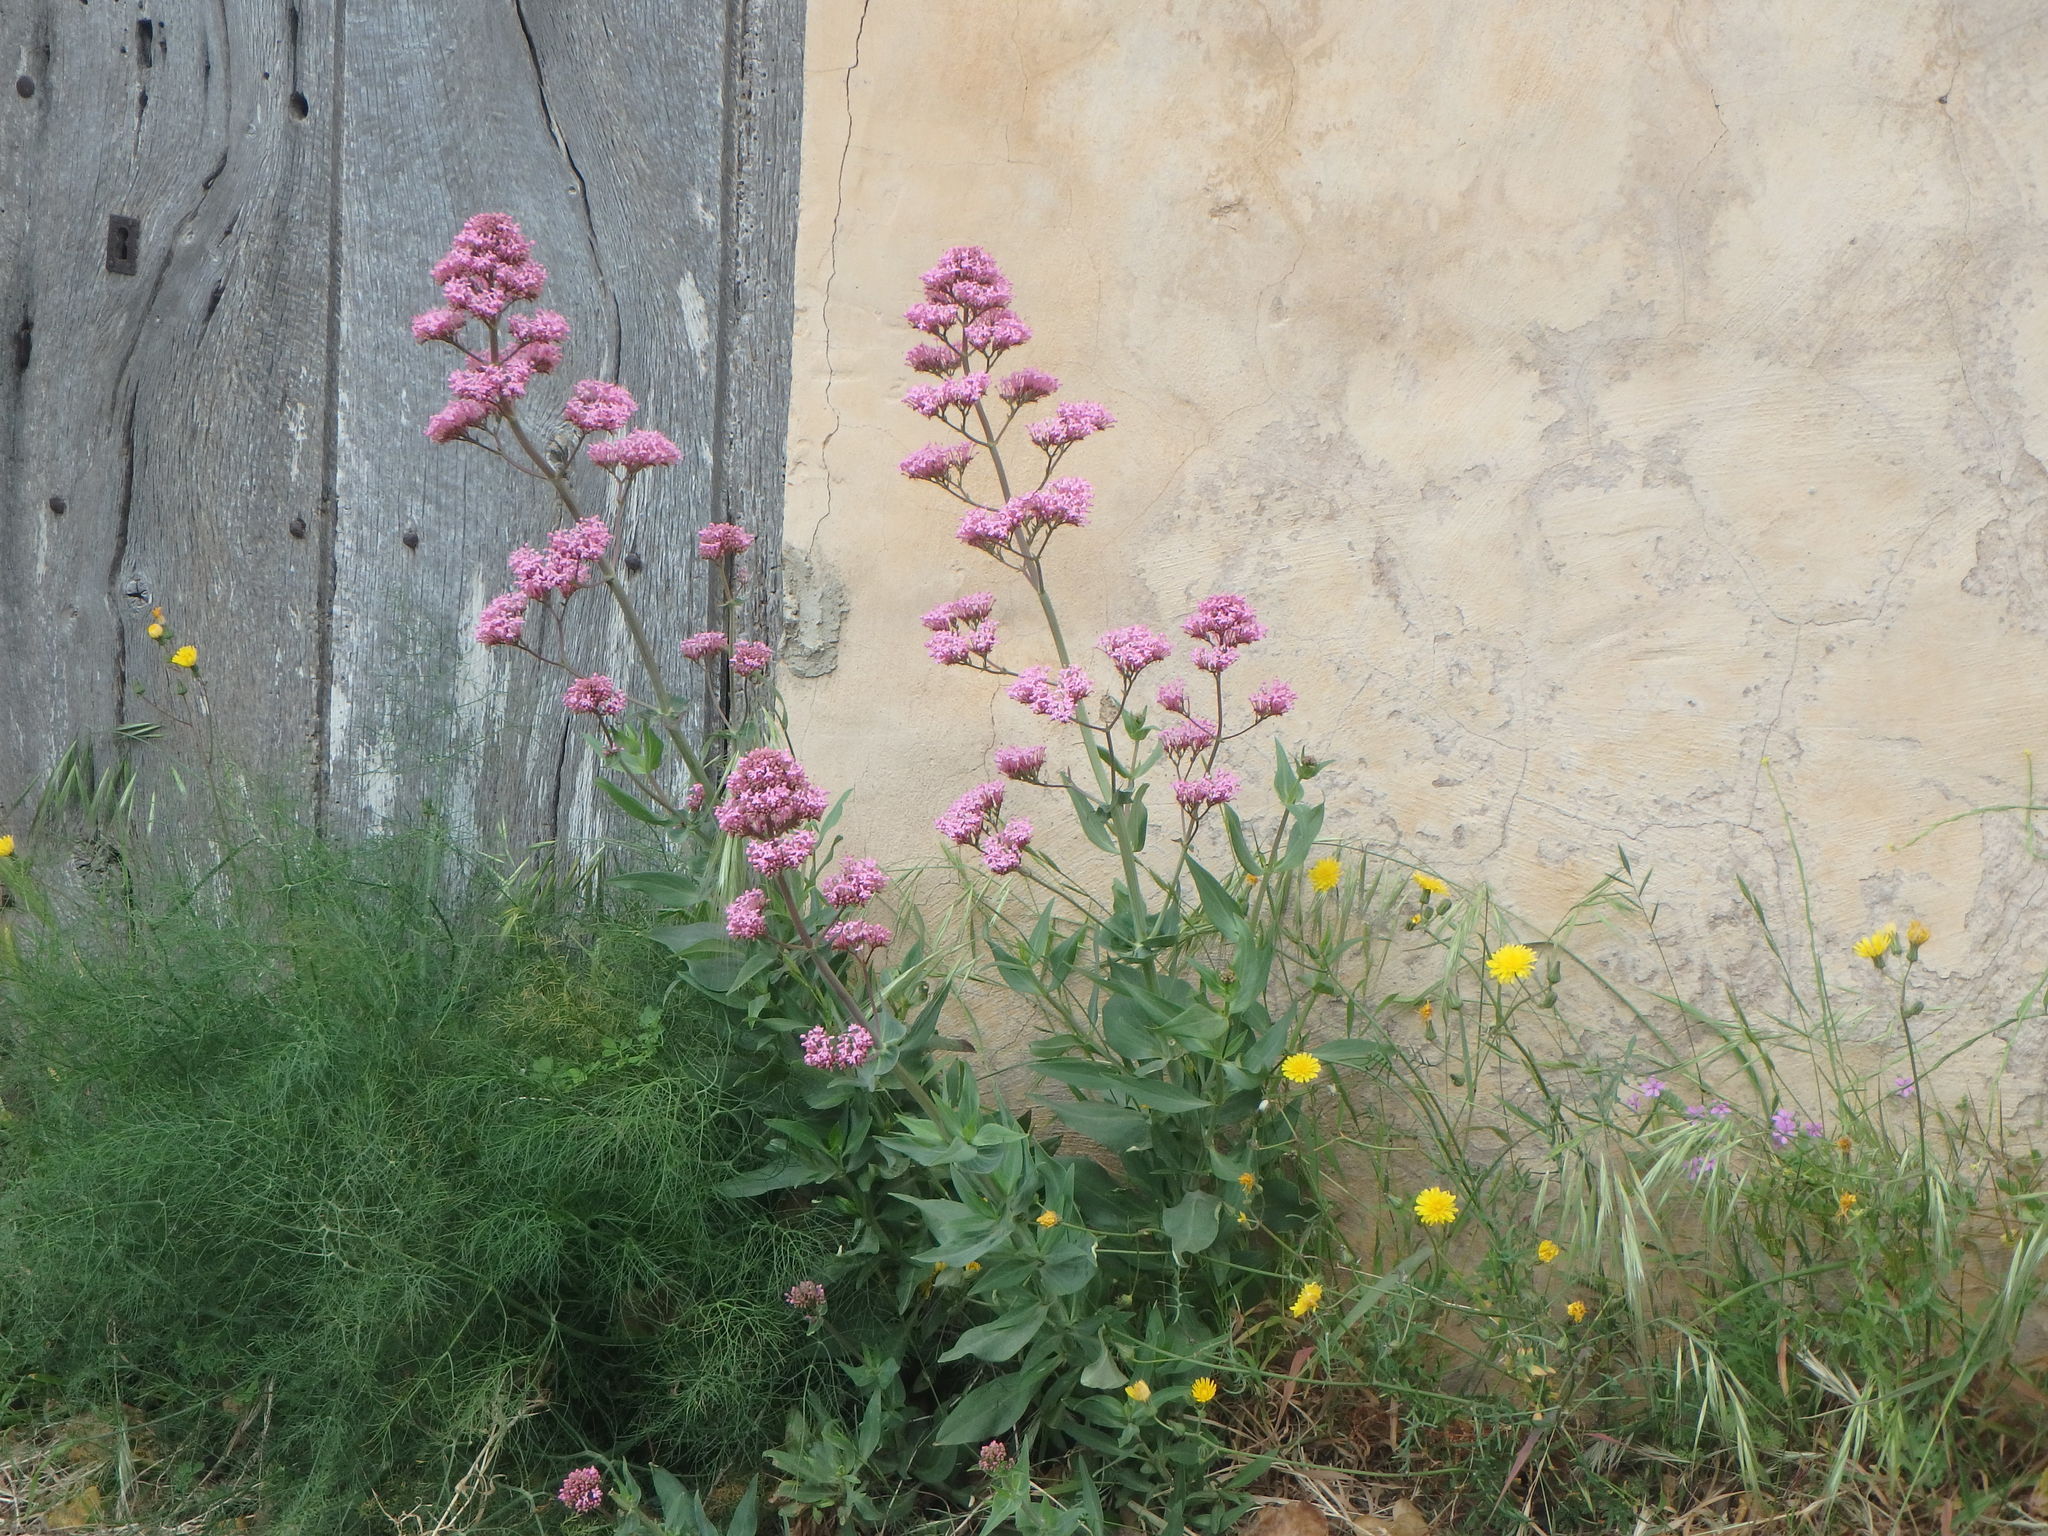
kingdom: Plantae
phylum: Tracheophyta
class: Magnoliopsida
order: Dipsacales
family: Caprifoliaceae
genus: Centranthus
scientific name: Centranthus ruber
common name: Red valerian
